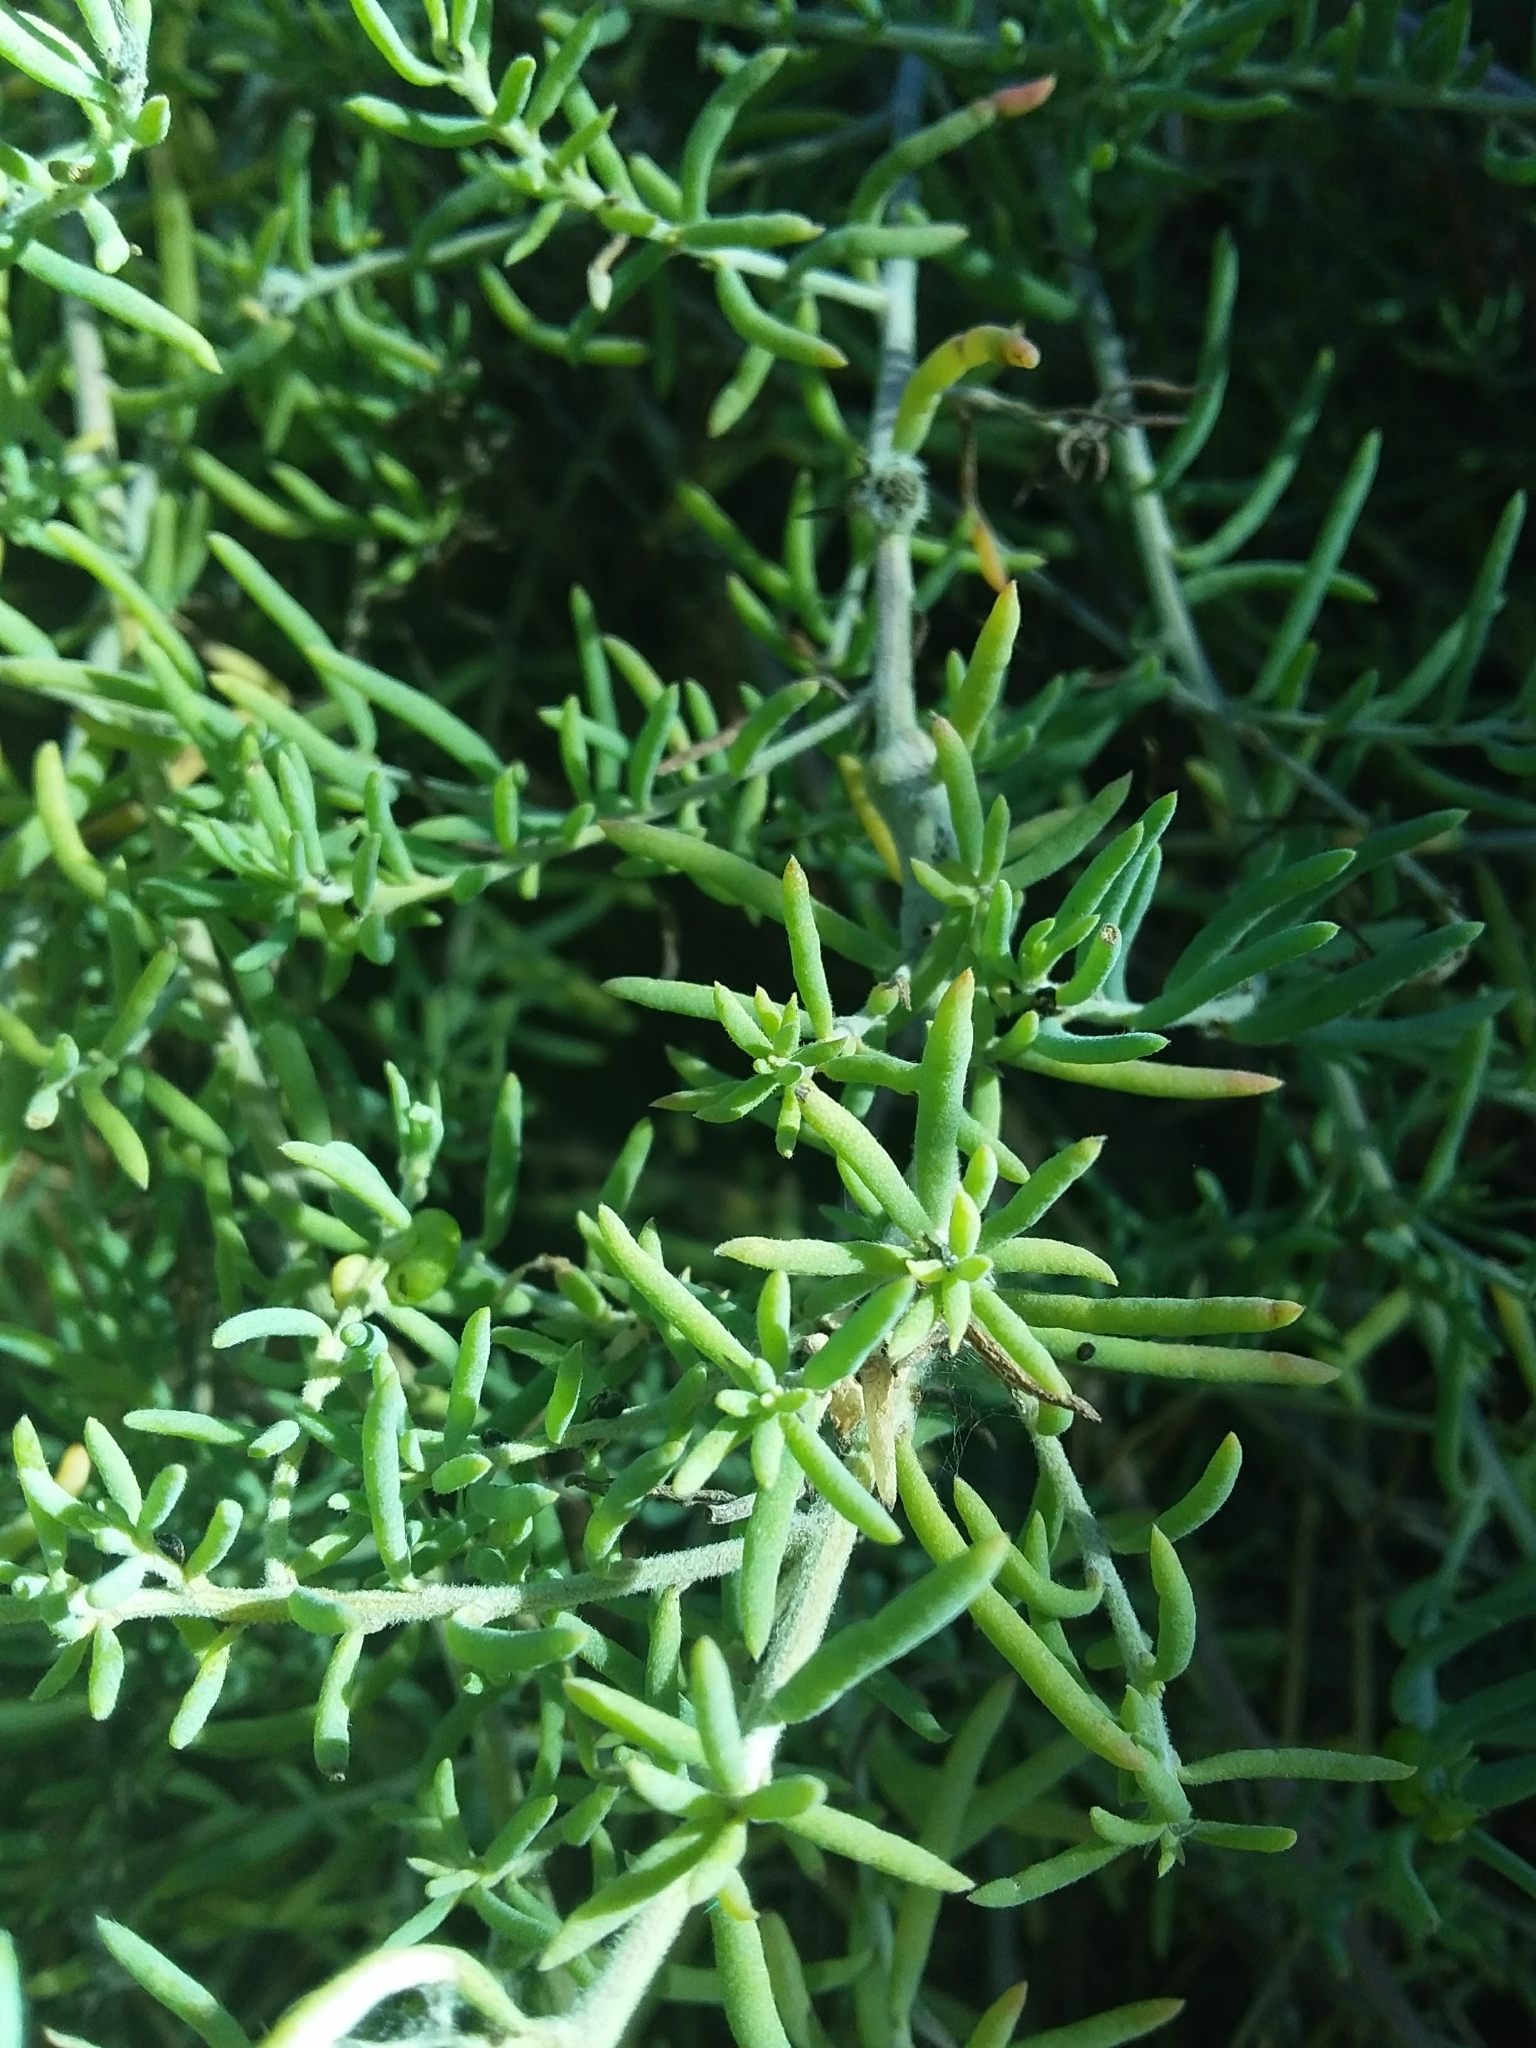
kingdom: Plantae
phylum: Tracheophyta
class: Magnoliopsida
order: Caryophyllales
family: Amaranthaceae
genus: Enchylaena
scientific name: Enchylaena tomentosa
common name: Ruby saltbush
